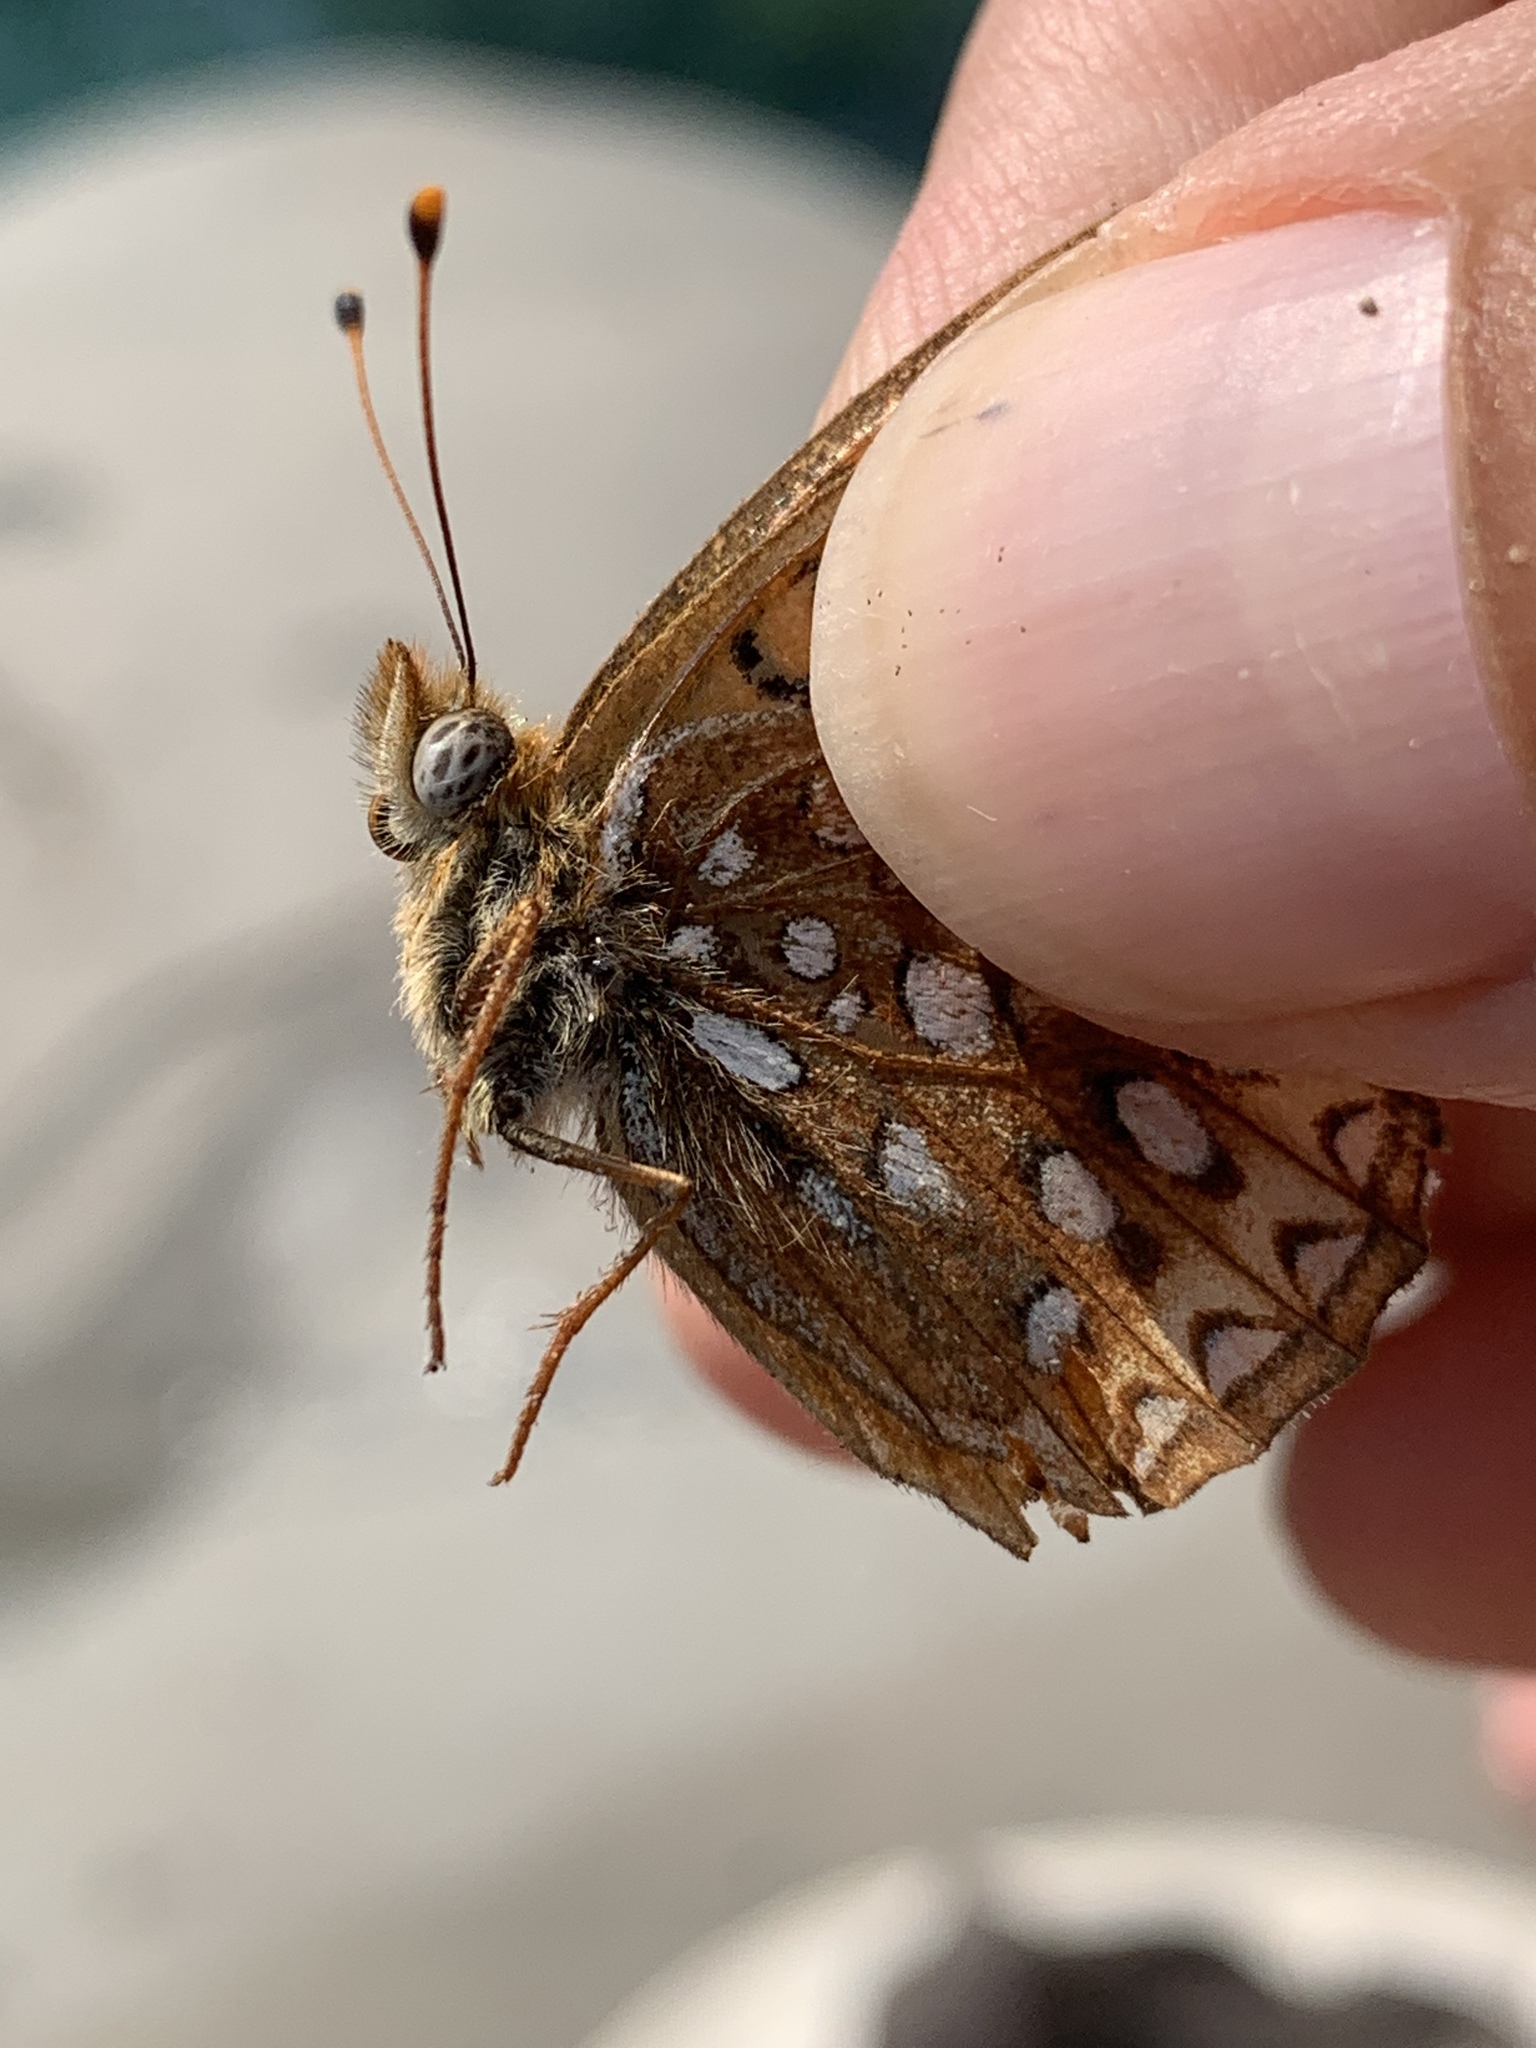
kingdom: Animalia
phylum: Arthropoda
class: Insecta
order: Lepidoptera
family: Nymphalidae
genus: Speyeria
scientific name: Speyeria atlantis
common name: Atlantis fritillary
